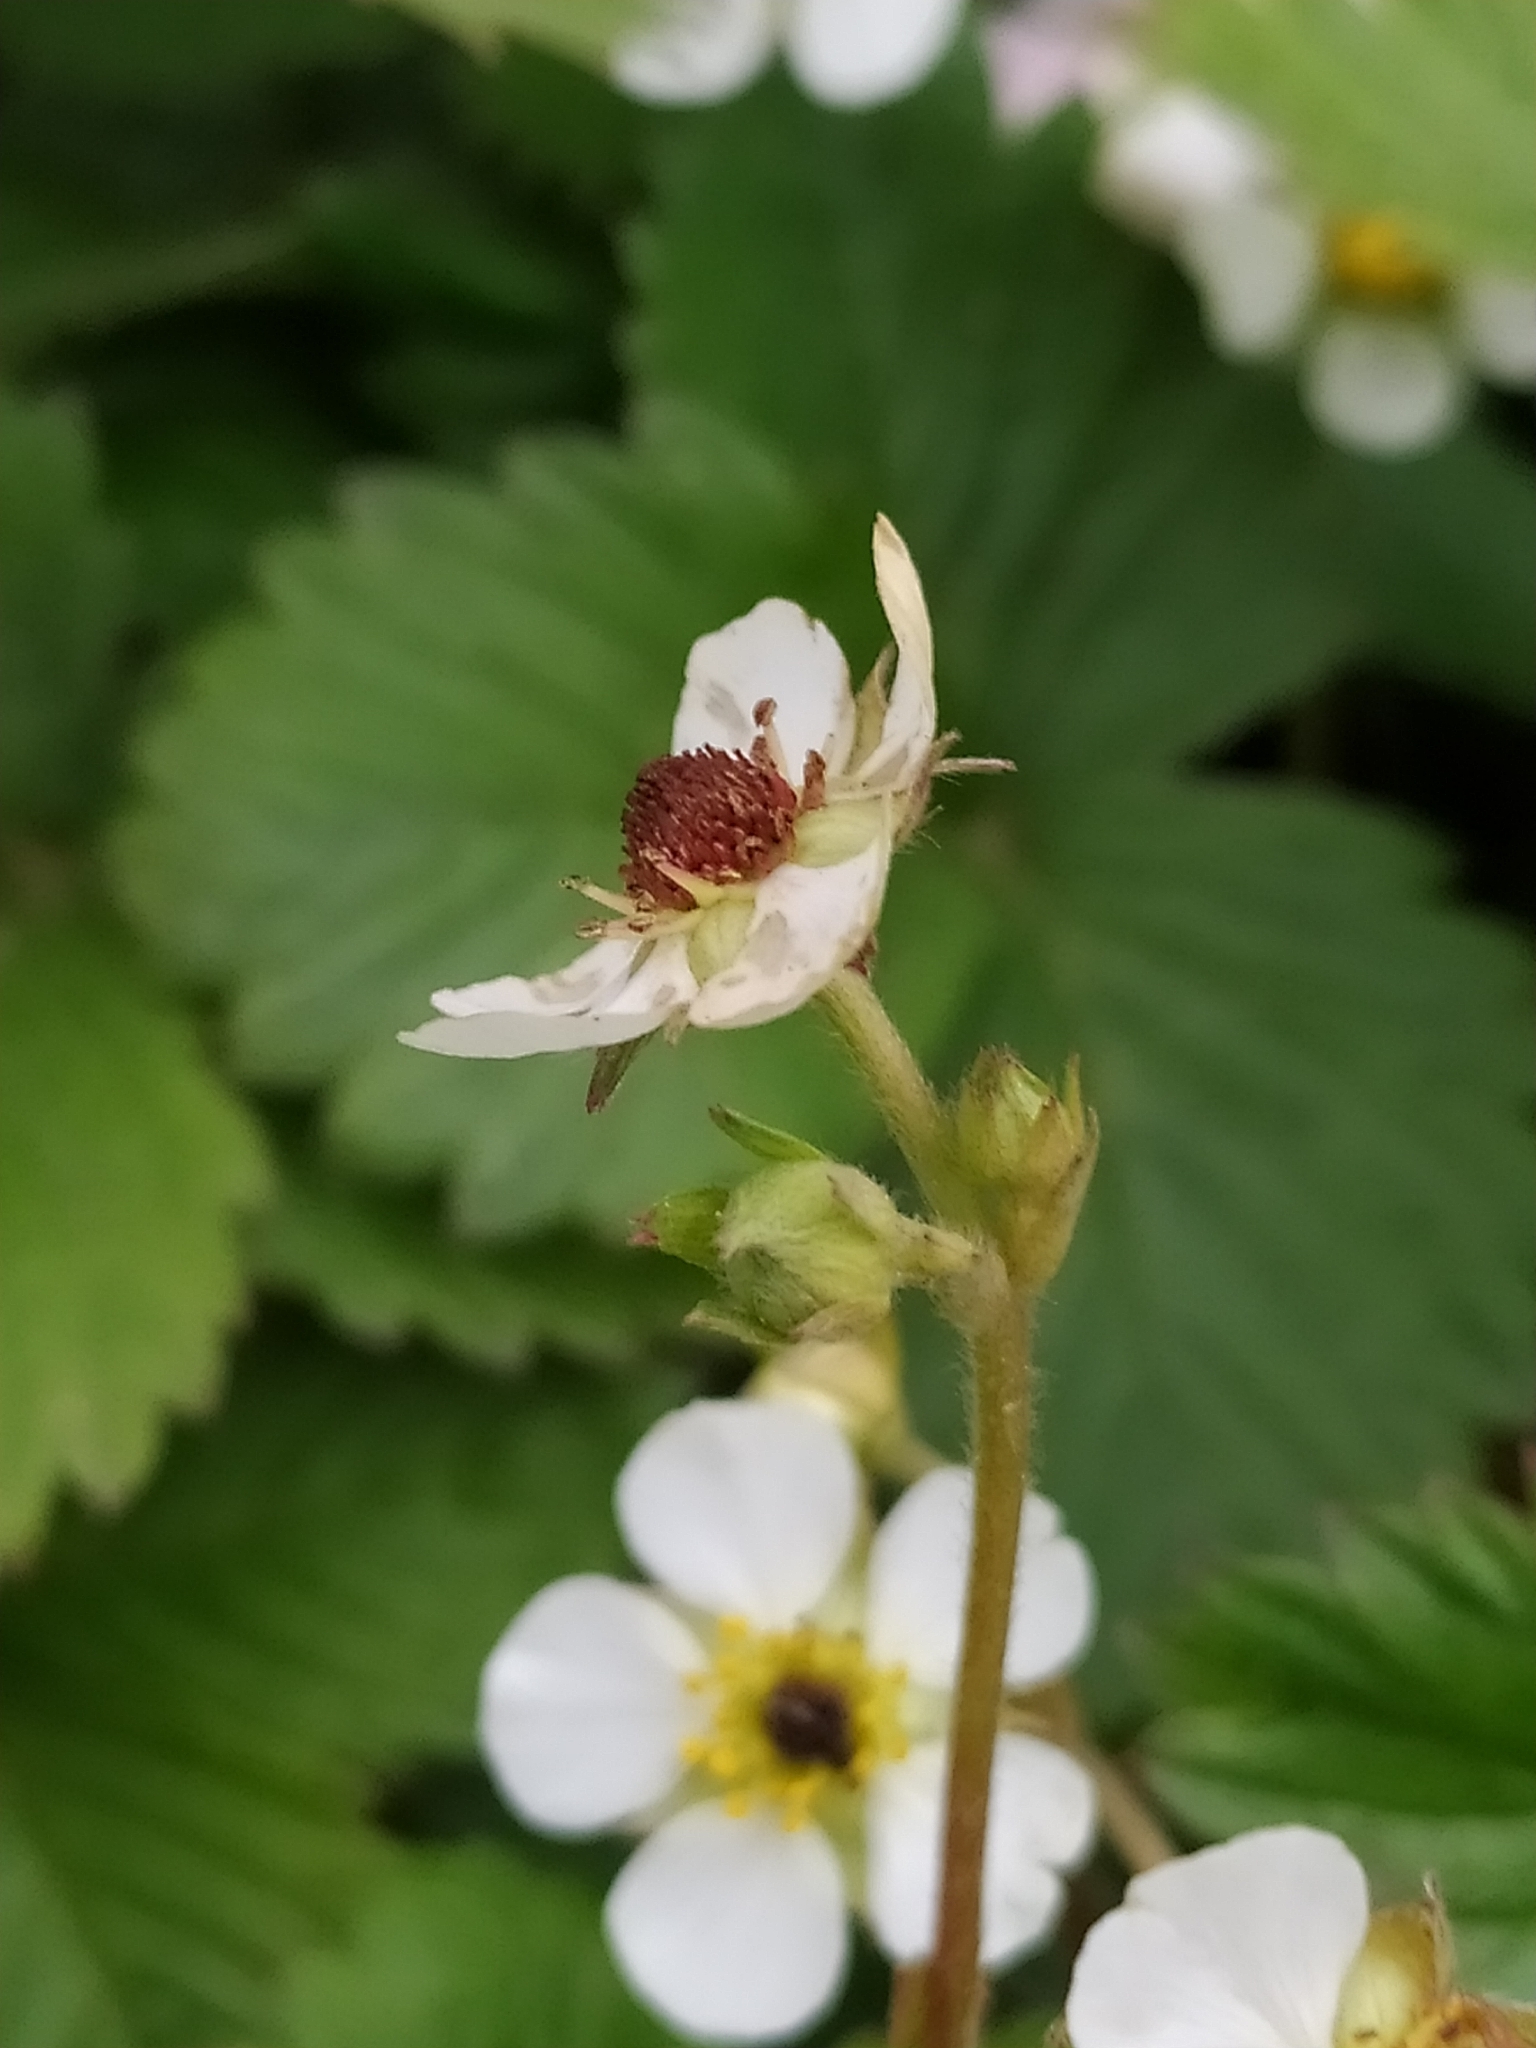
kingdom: Plantae
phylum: Tracheophyta
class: Magnoliopsida
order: Rosales
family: Rosaceae
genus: Fragaria
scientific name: Fragaria vesca
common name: Wild strawberry
